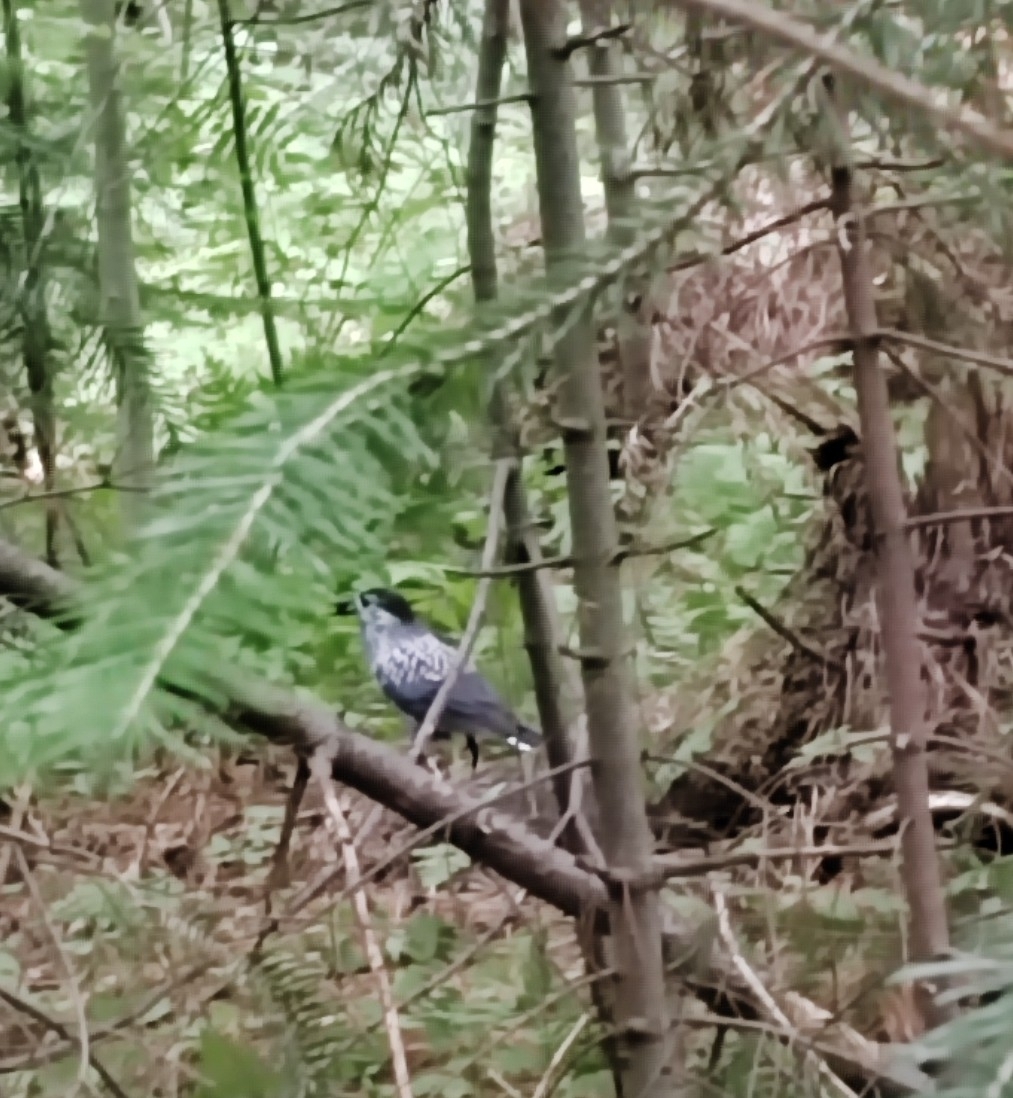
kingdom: Animalia
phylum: Chordata
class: Aves
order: Passeriformes
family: Corvidae
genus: Nucifraga
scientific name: Nucifraga caryocatactes
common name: Spotted nutcracker
